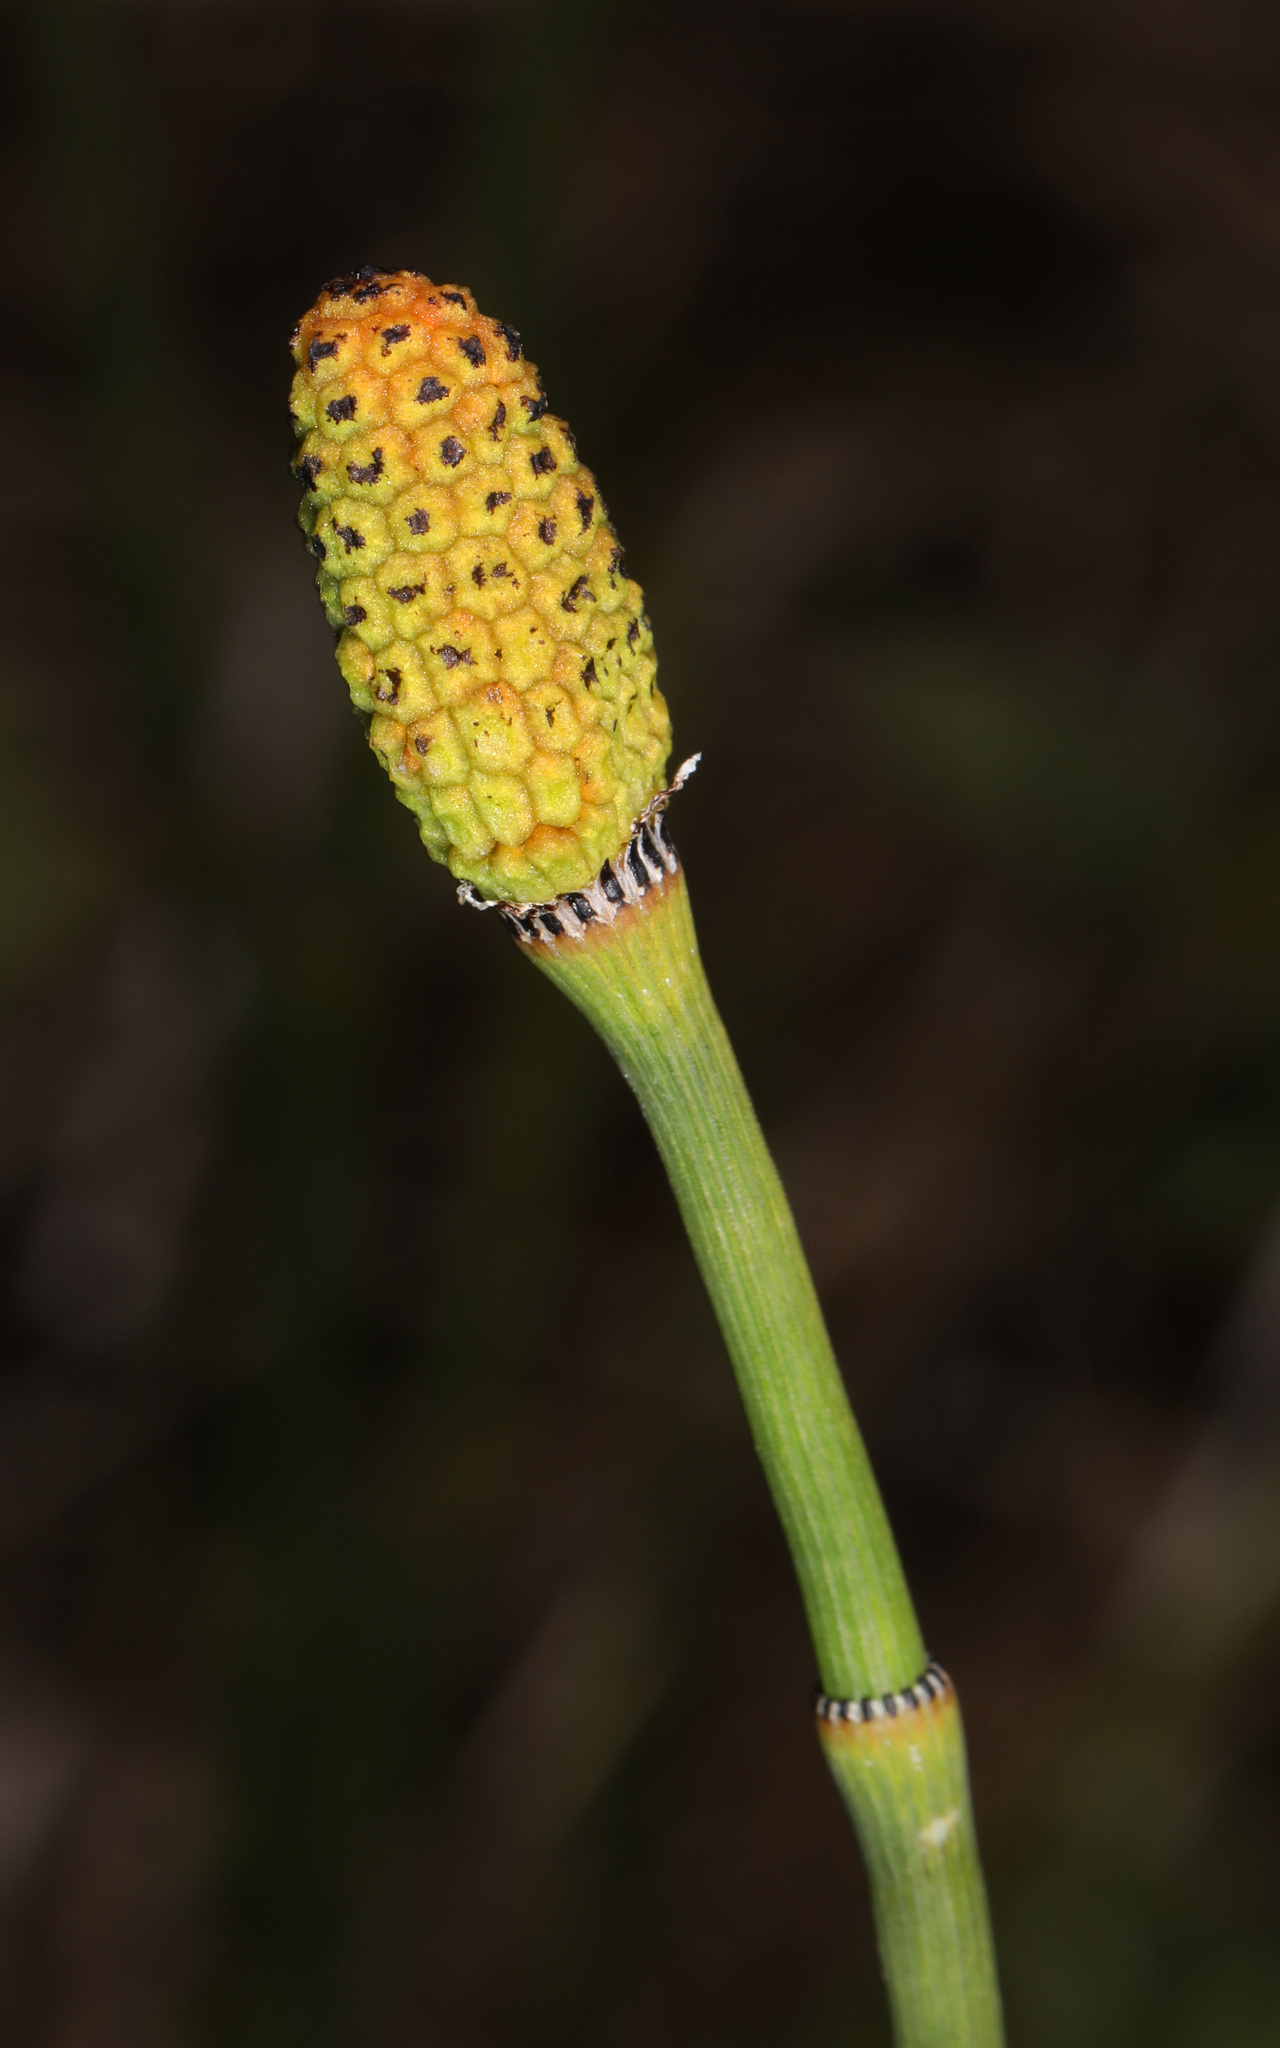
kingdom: Plantae
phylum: Tracheophyta
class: Polypodiopsida
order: Equisetales
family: Equisetaceae
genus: Equisetum
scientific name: Equisetum laevigatum
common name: Smooth scouring-rush
